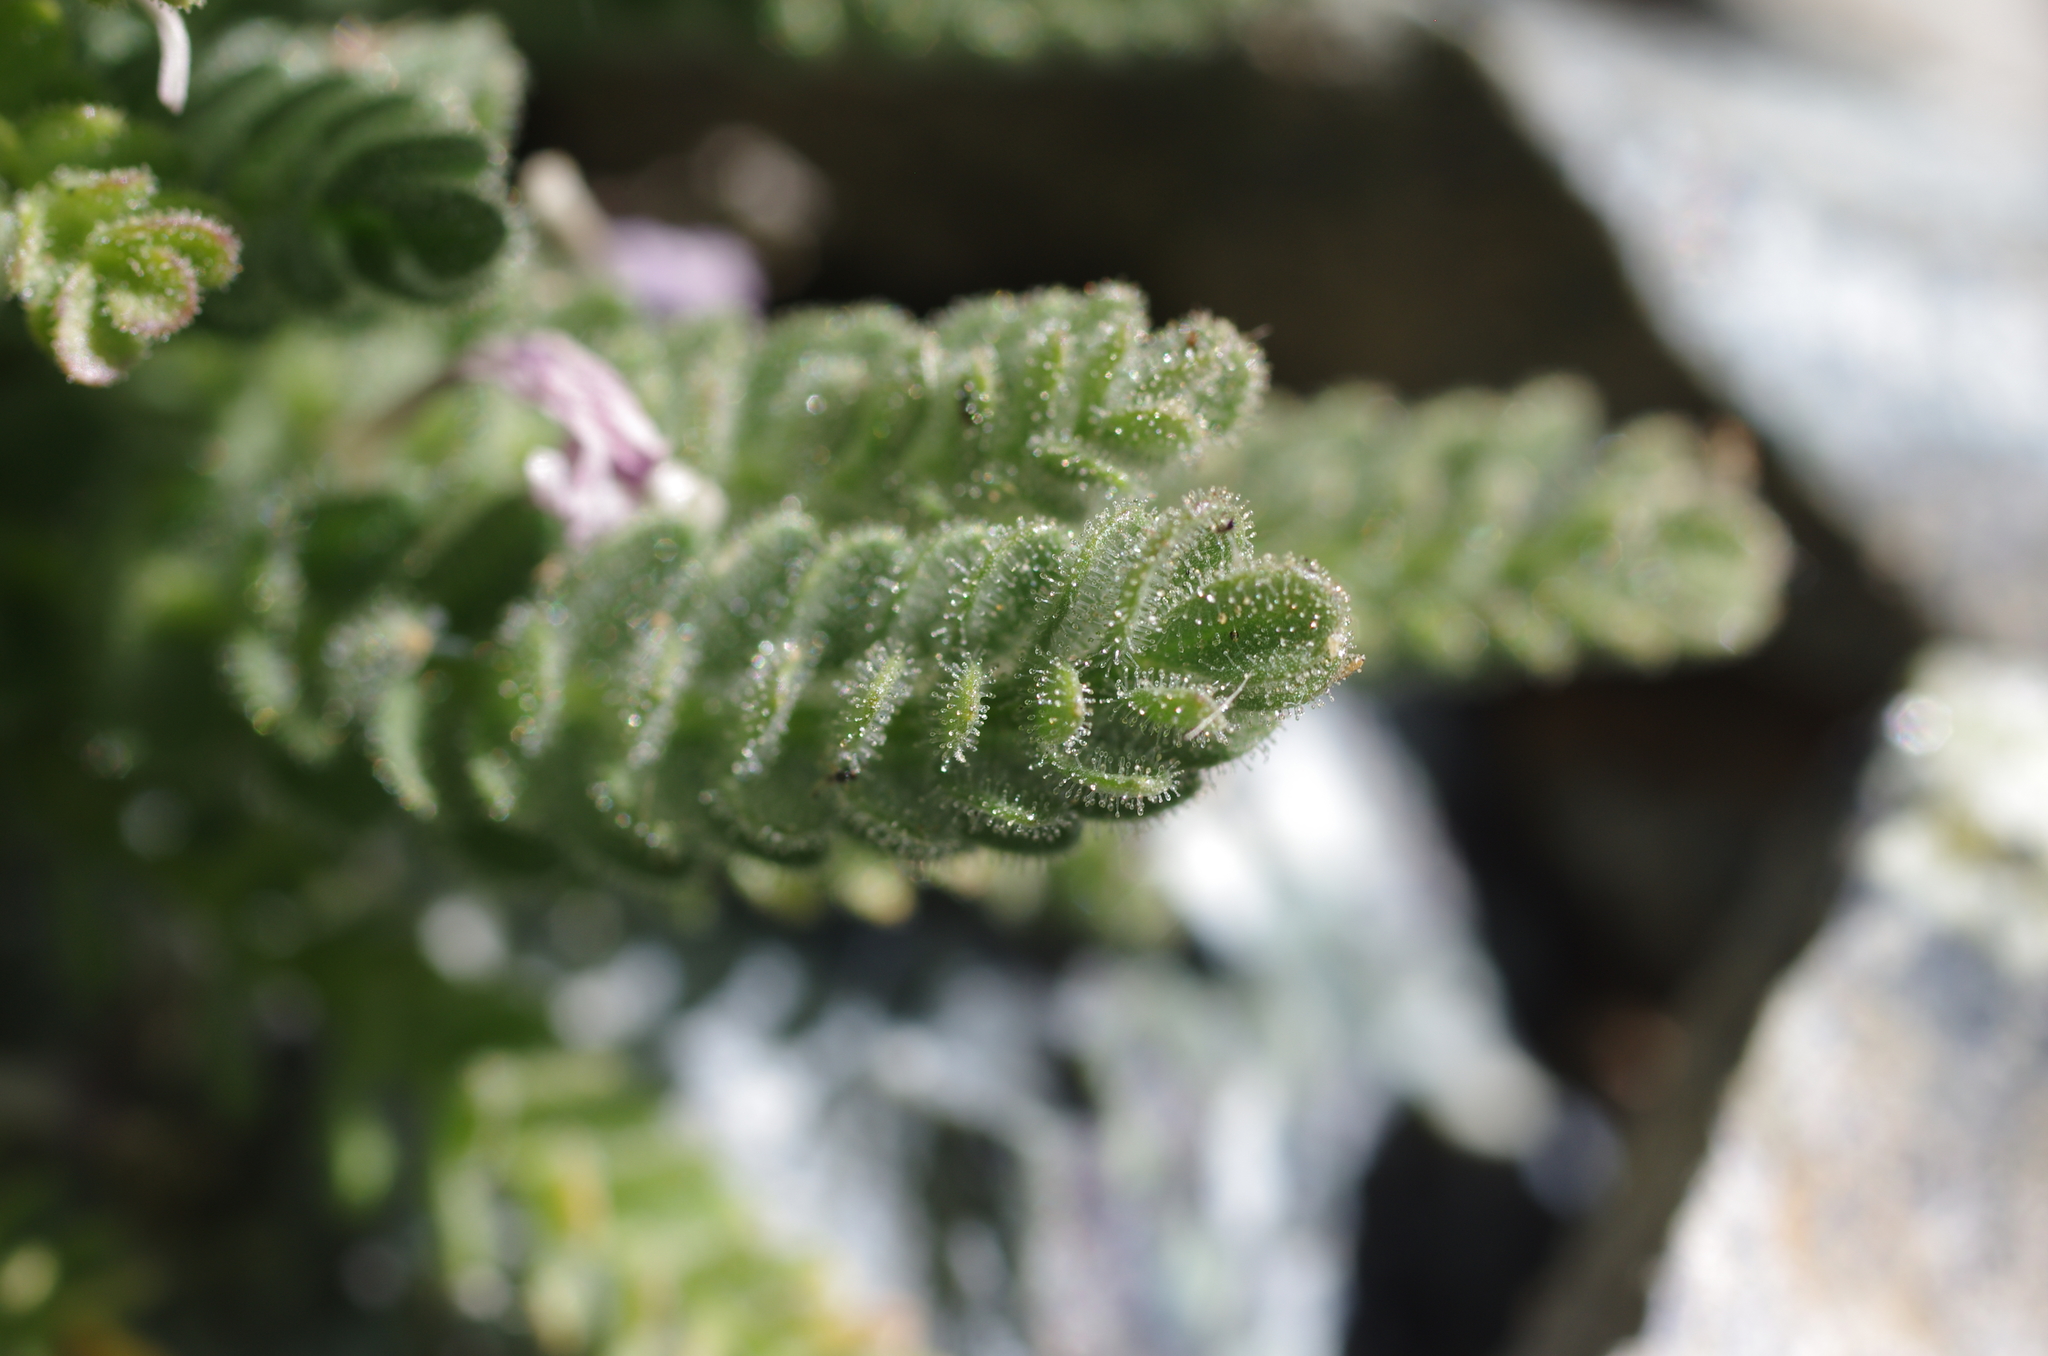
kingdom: Plantae
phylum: Tracheophyta
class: Magnoliopsida
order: Ericales
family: Polemoniaceae
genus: Polemonium
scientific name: Polemonium eddyense
